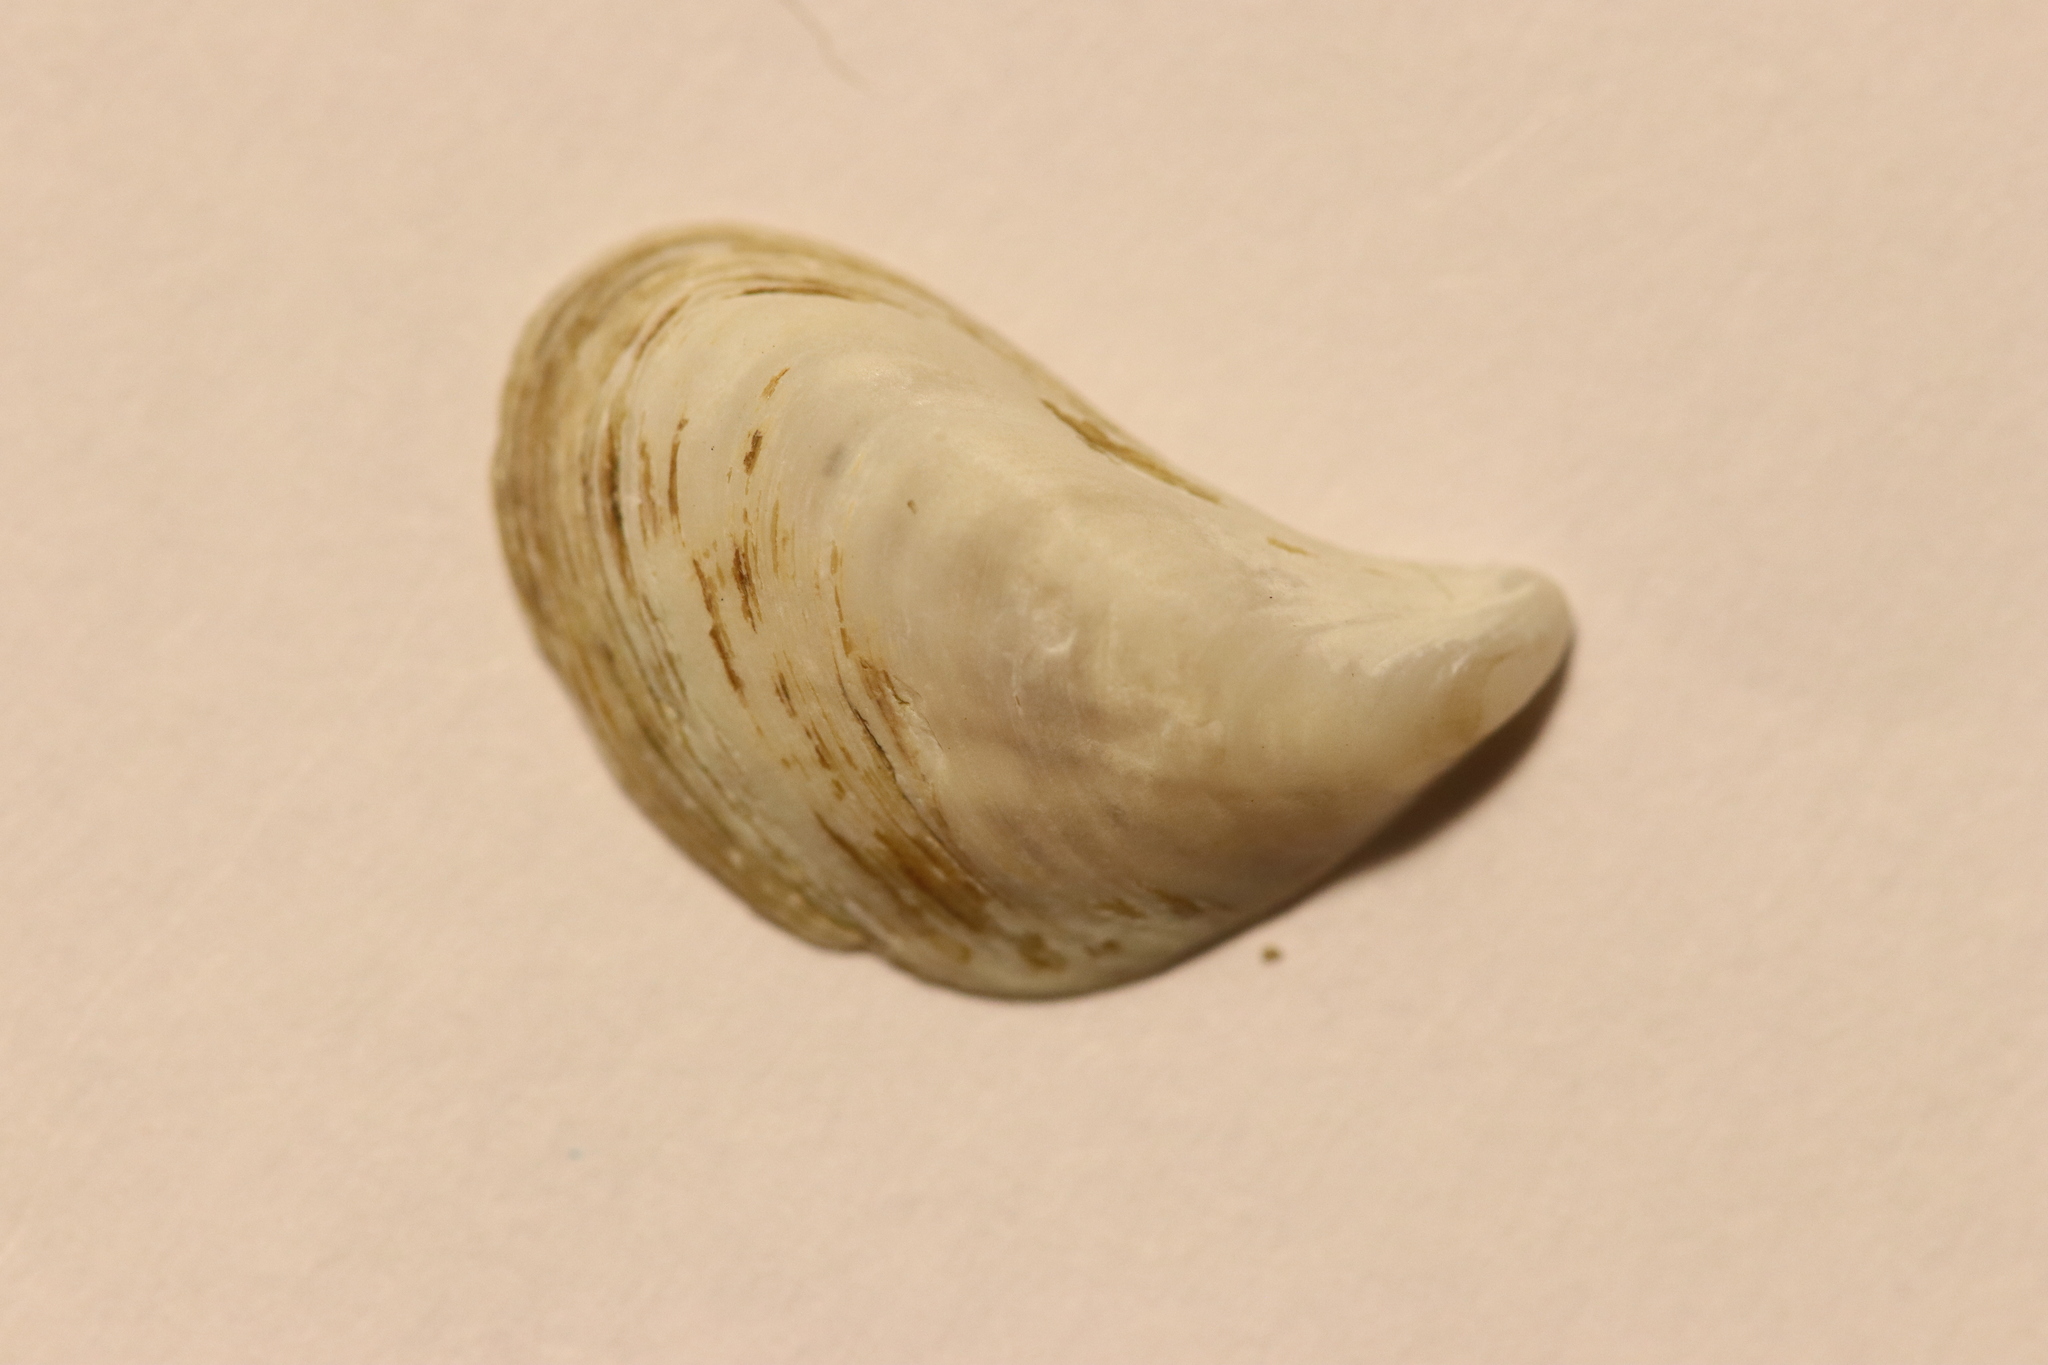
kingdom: Animalia
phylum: Mollusca
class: Bivalvia
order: Myida
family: Dreissenidae
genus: Dreissena
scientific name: Dreissena bugensis
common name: Quagga mussel
